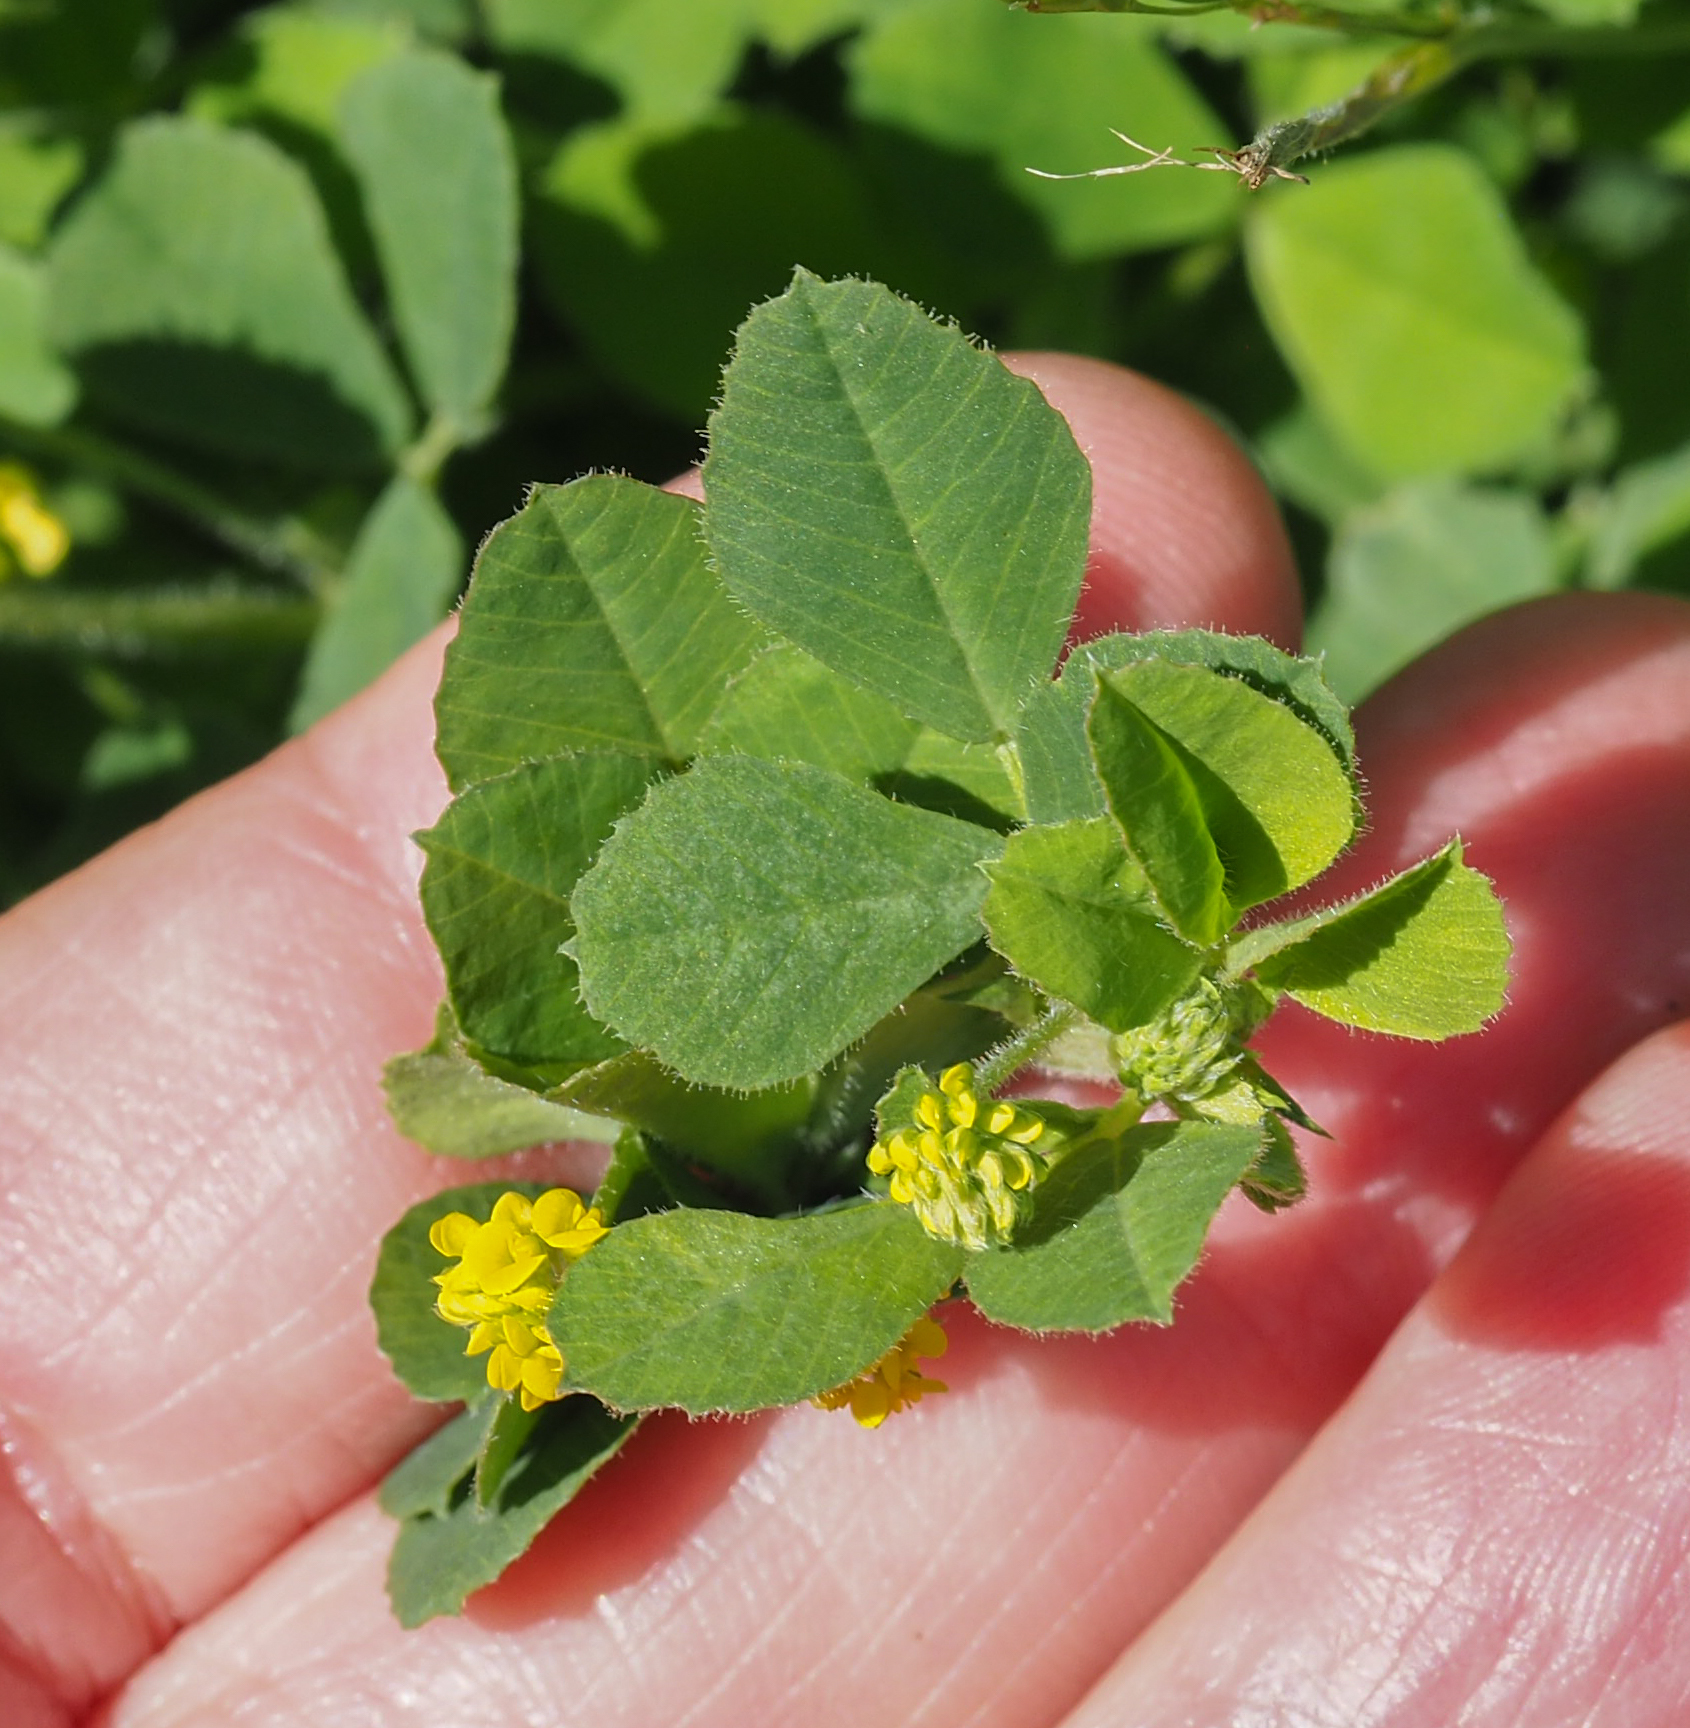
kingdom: Plantae
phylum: Tracheophyta
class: Magnoliopsida
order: Fabales
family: Fabaceae
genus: Medicago
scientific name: Medicago lupulina
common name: Black medick
